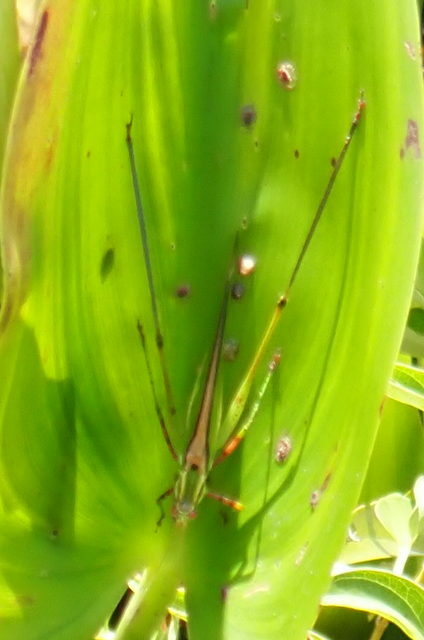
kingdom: Animalia
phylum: Arthropoda
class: Insecta
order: Orthoptera
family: Tettigoniidae
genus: Inscudderia
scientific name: Inscudderia strigata
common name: Guinea-cypress katydid
